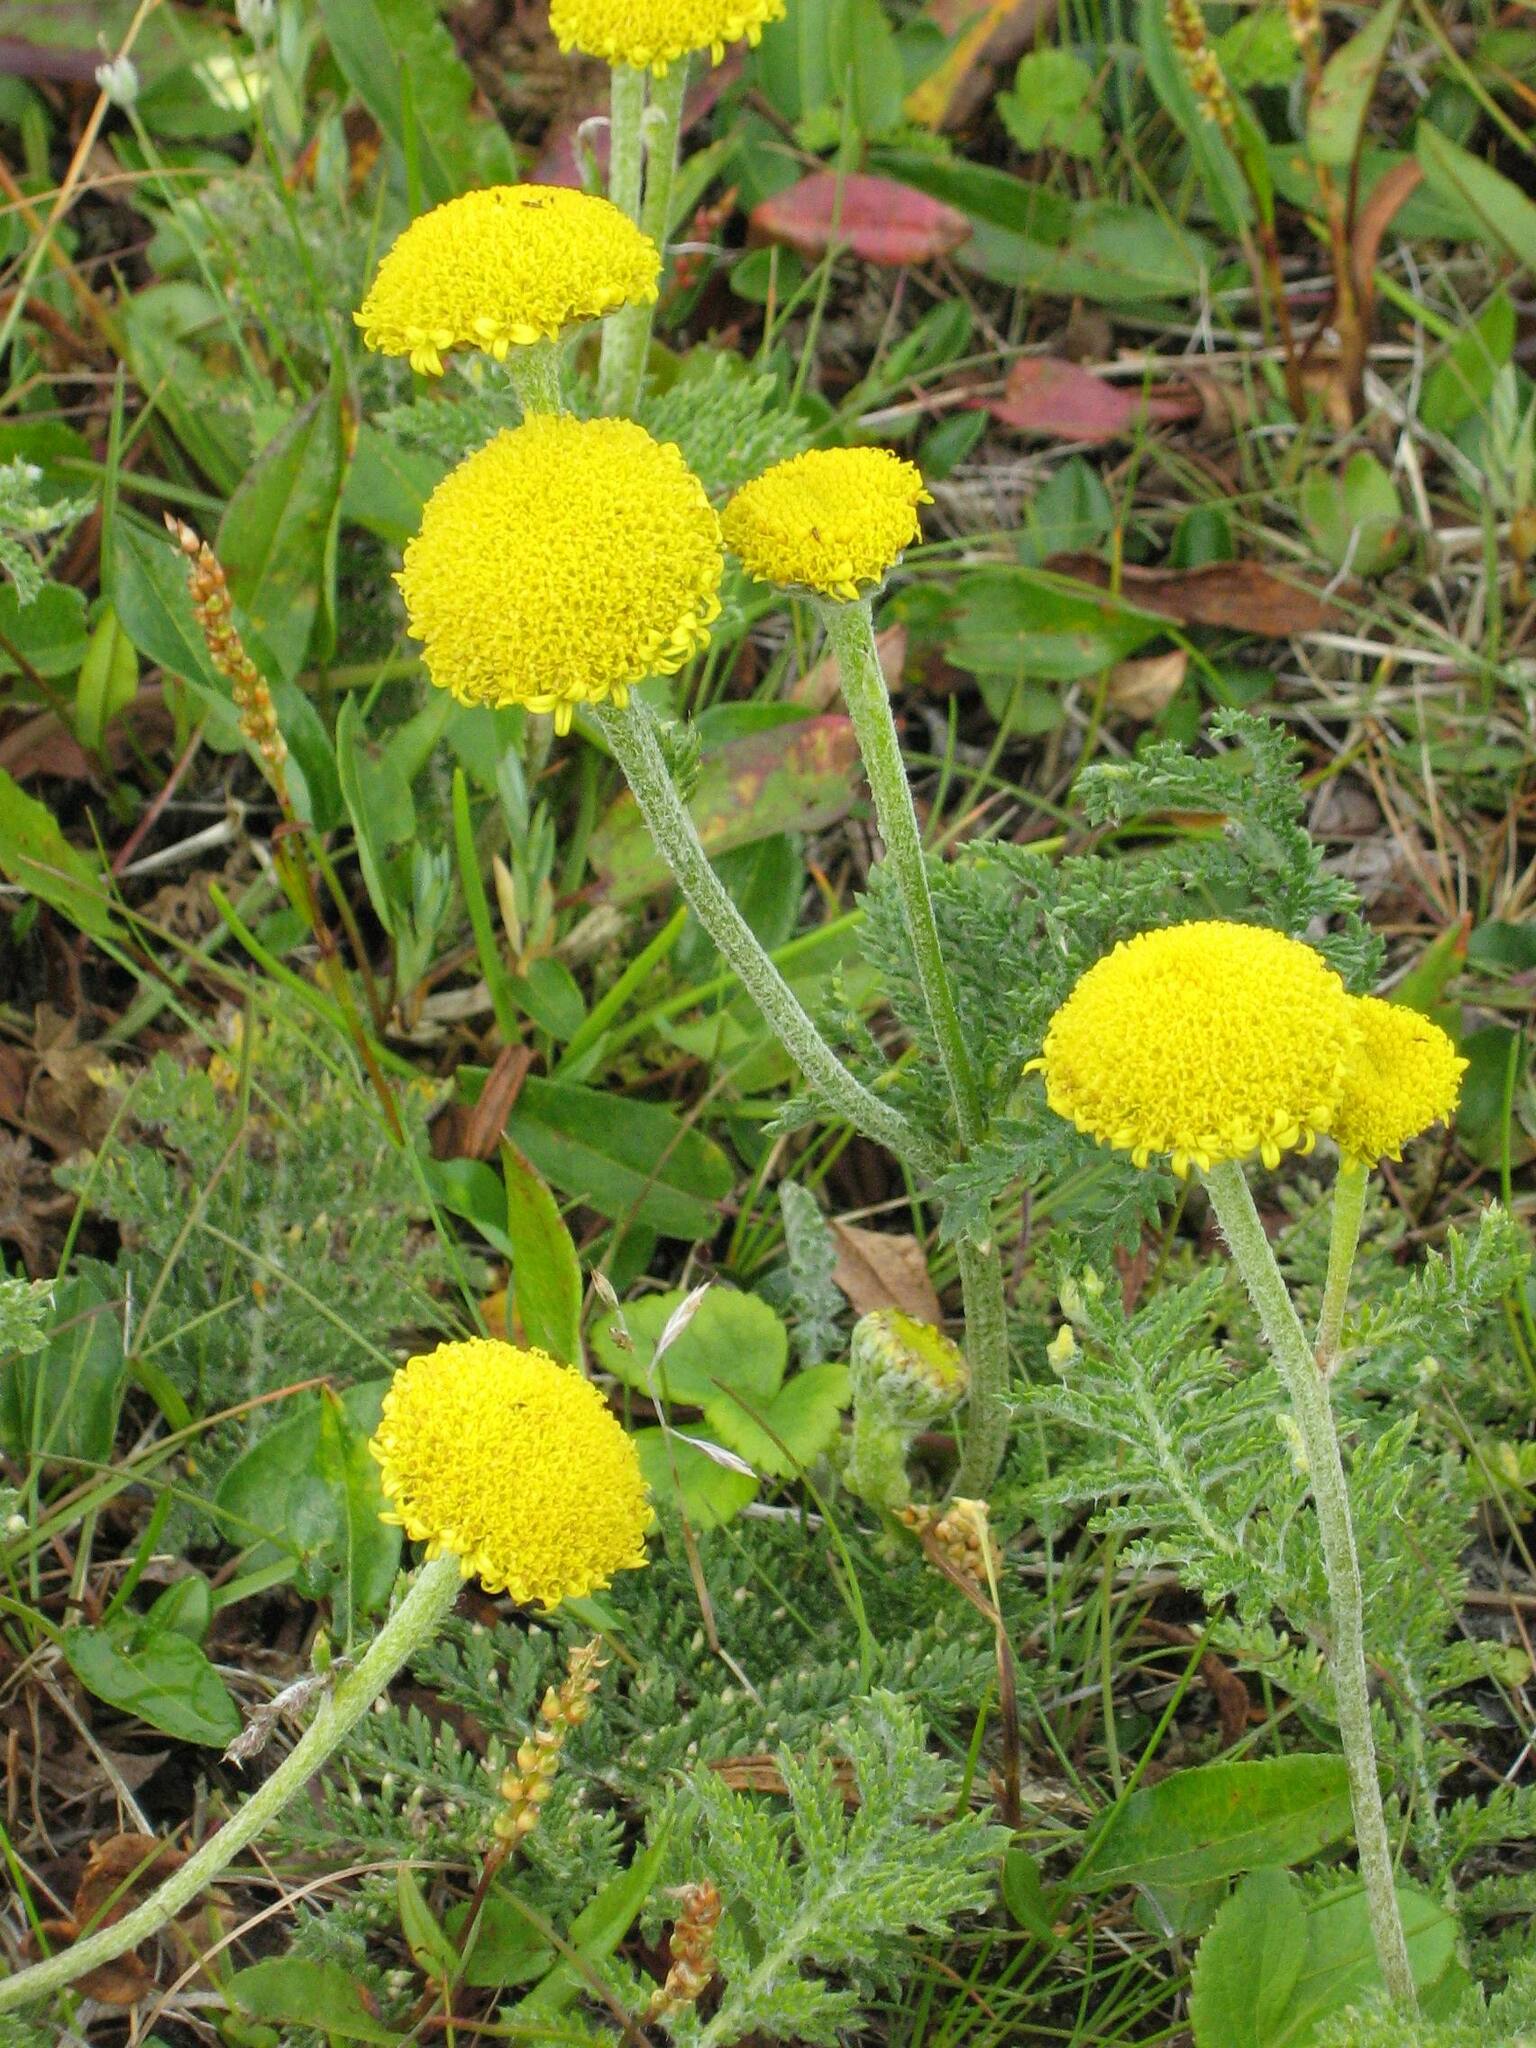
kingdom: Plantae
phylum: Tracheophyta
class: Magnoliopsida
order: Asterales
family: Asteraceae
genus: Tanacetum
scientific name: Tanacetum bipinnatum
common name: Dwarf tansy
